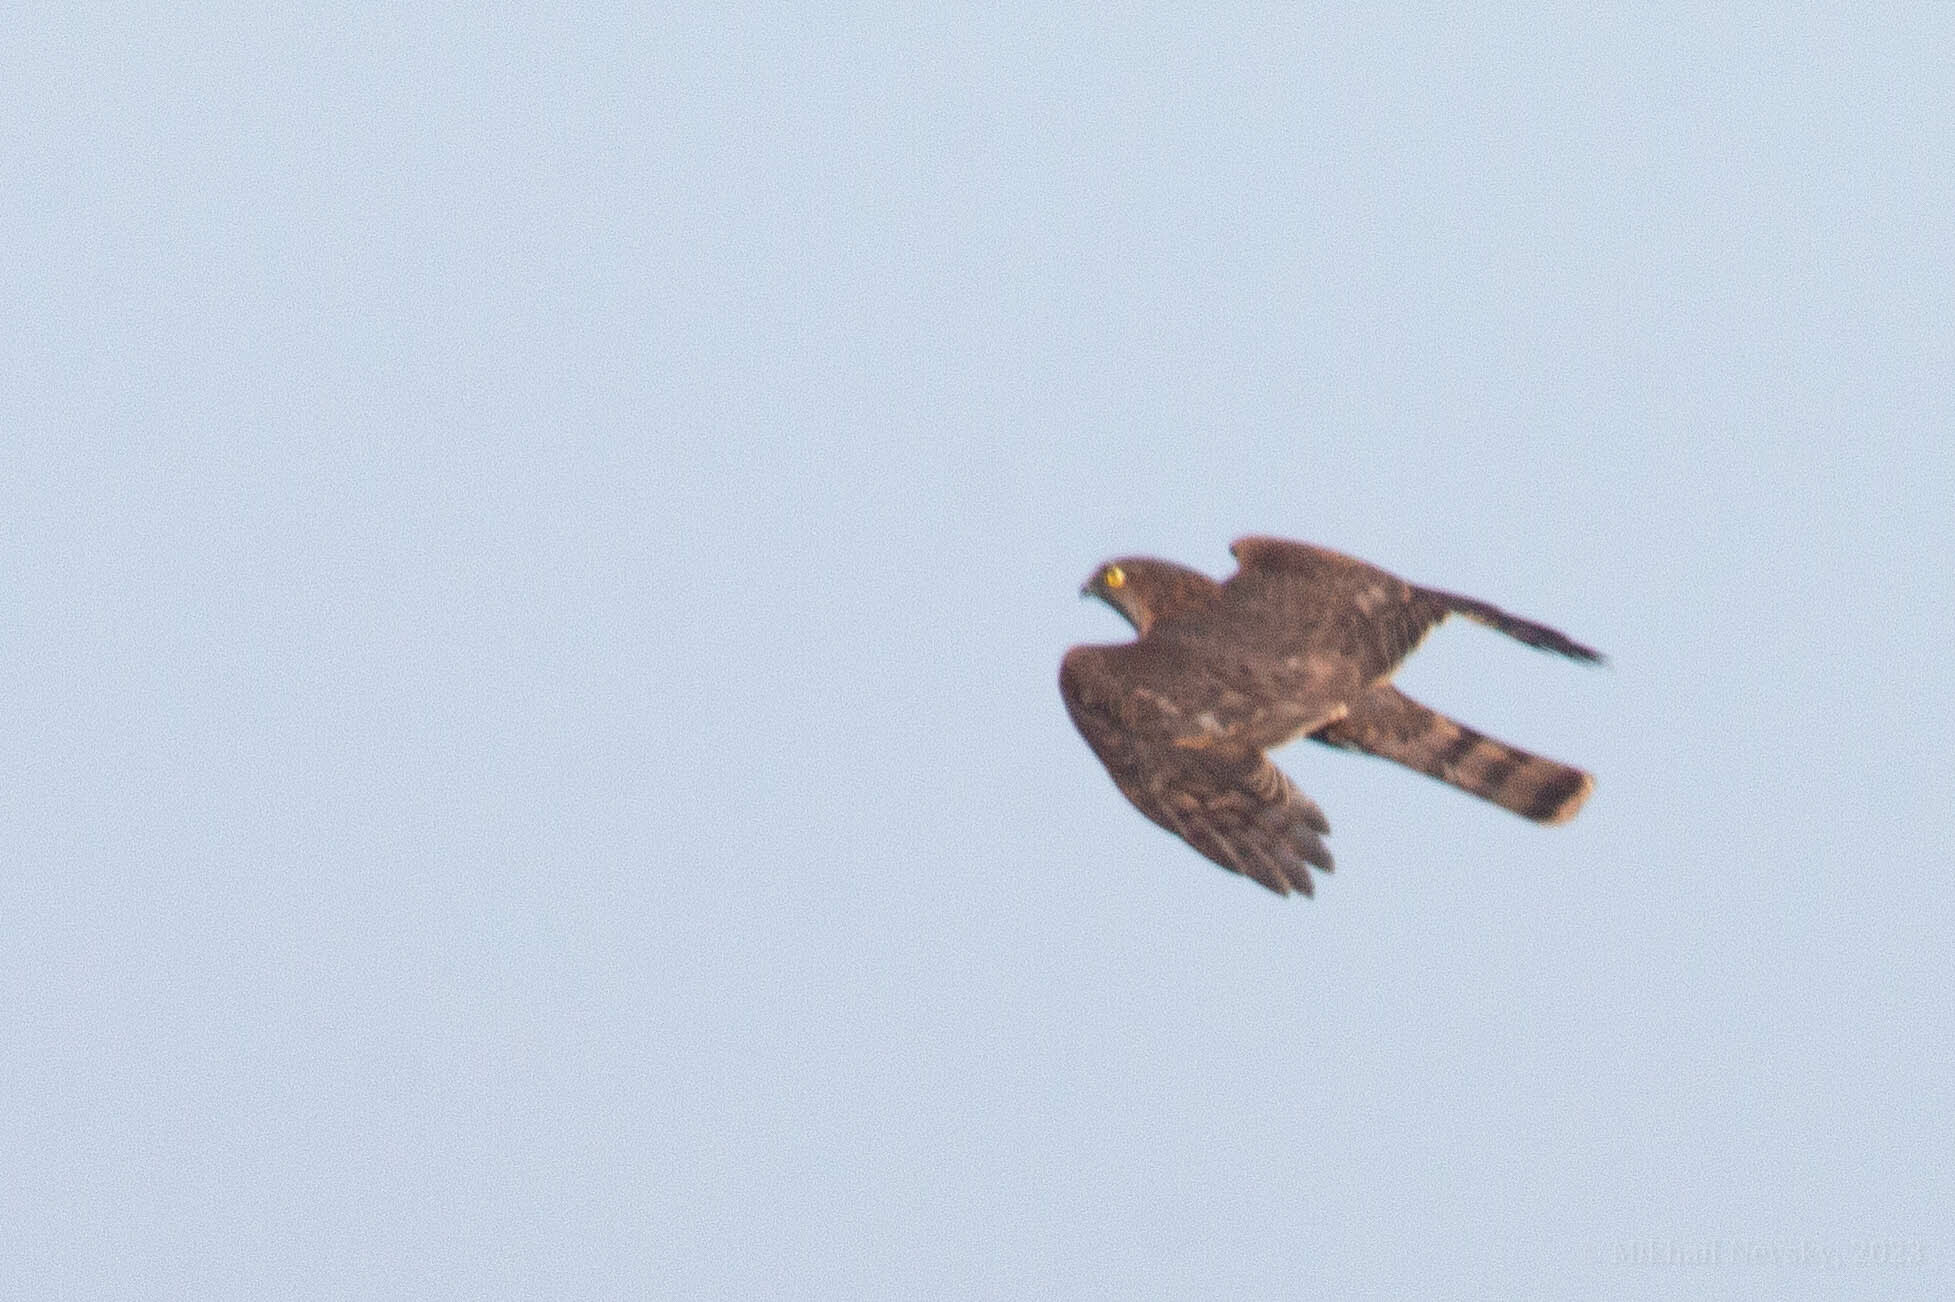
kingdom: Animalia
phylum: Chordata
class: Aves
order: Accipitriformes
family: Accipitridae
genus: Accipiter
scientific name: Accipiter nisus
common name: Eurasian sparrowhawk
